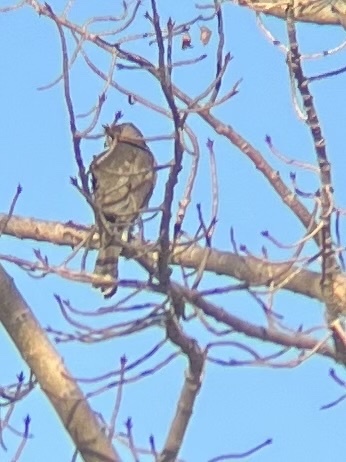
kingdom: Animalia
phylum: Chordata
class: Aves
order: Accipitriformes
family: Accipitridae
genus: Accipiter
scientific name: Accipiter cooperii
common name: Cooper's hawk
